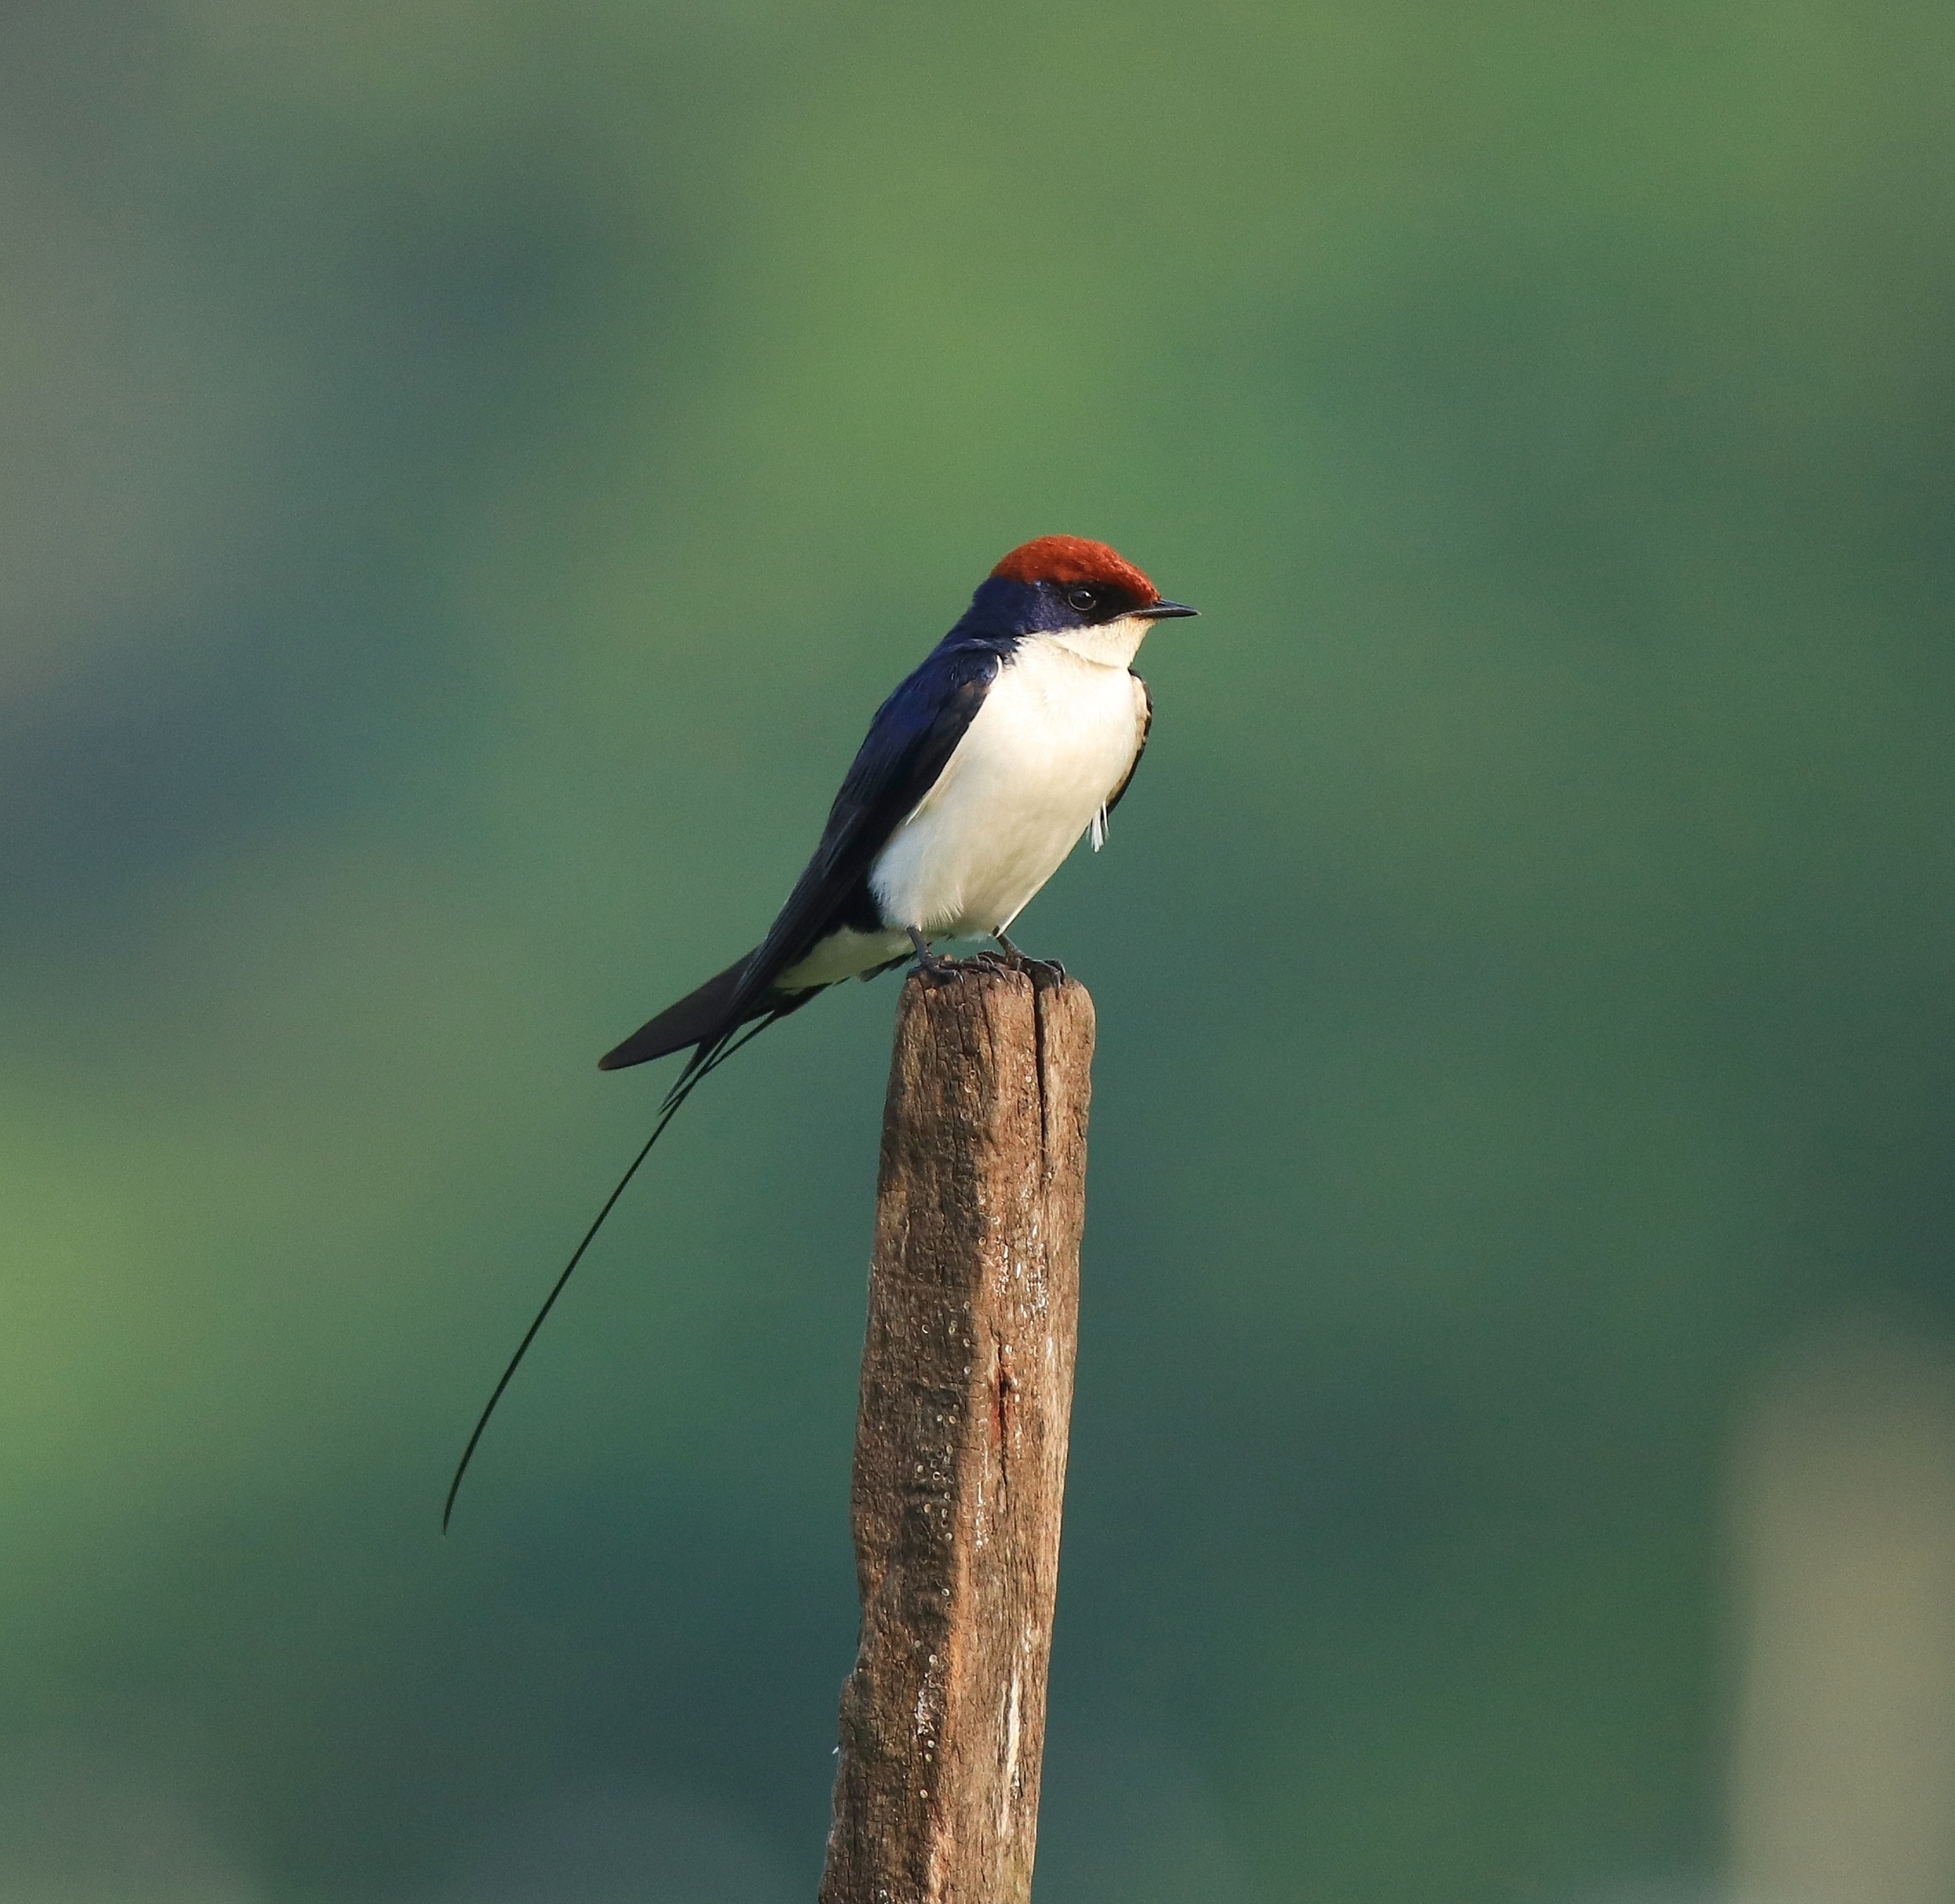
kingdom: Animalia
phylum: Chordata
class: Aves
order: Passeriformes
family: Hirundinidae
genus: Hirundo
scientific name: Hirundo smithii
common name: Wire-tailed swallow
